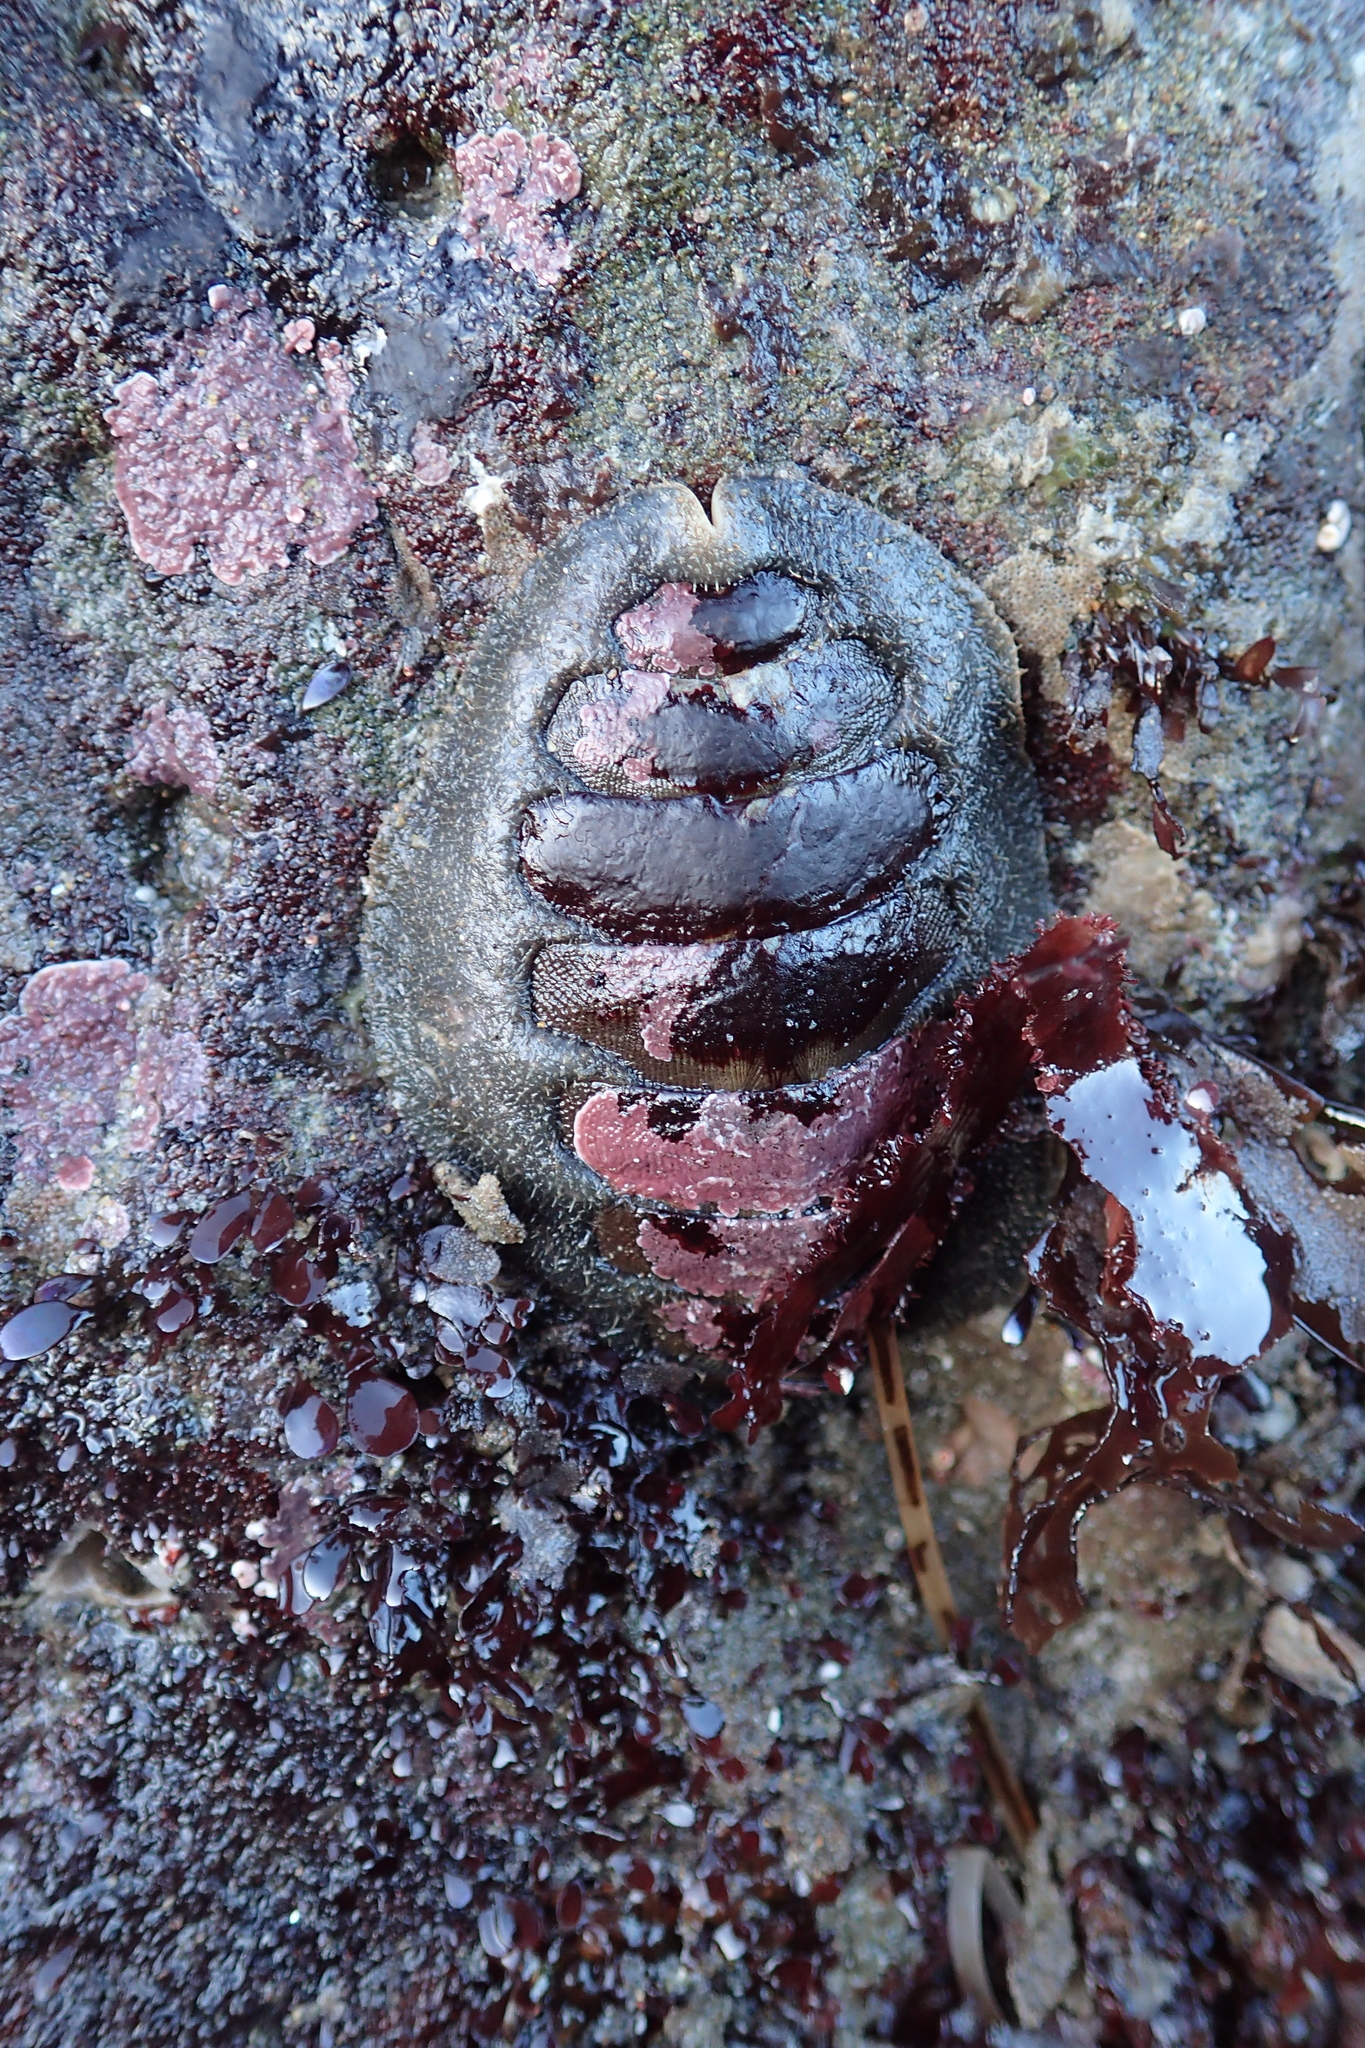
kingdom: Animalia
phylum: Mollusca
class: Polyplacophora
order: Chitonida
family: Mopaliidae
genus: Mopalia
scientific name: Mopalia hindsii
